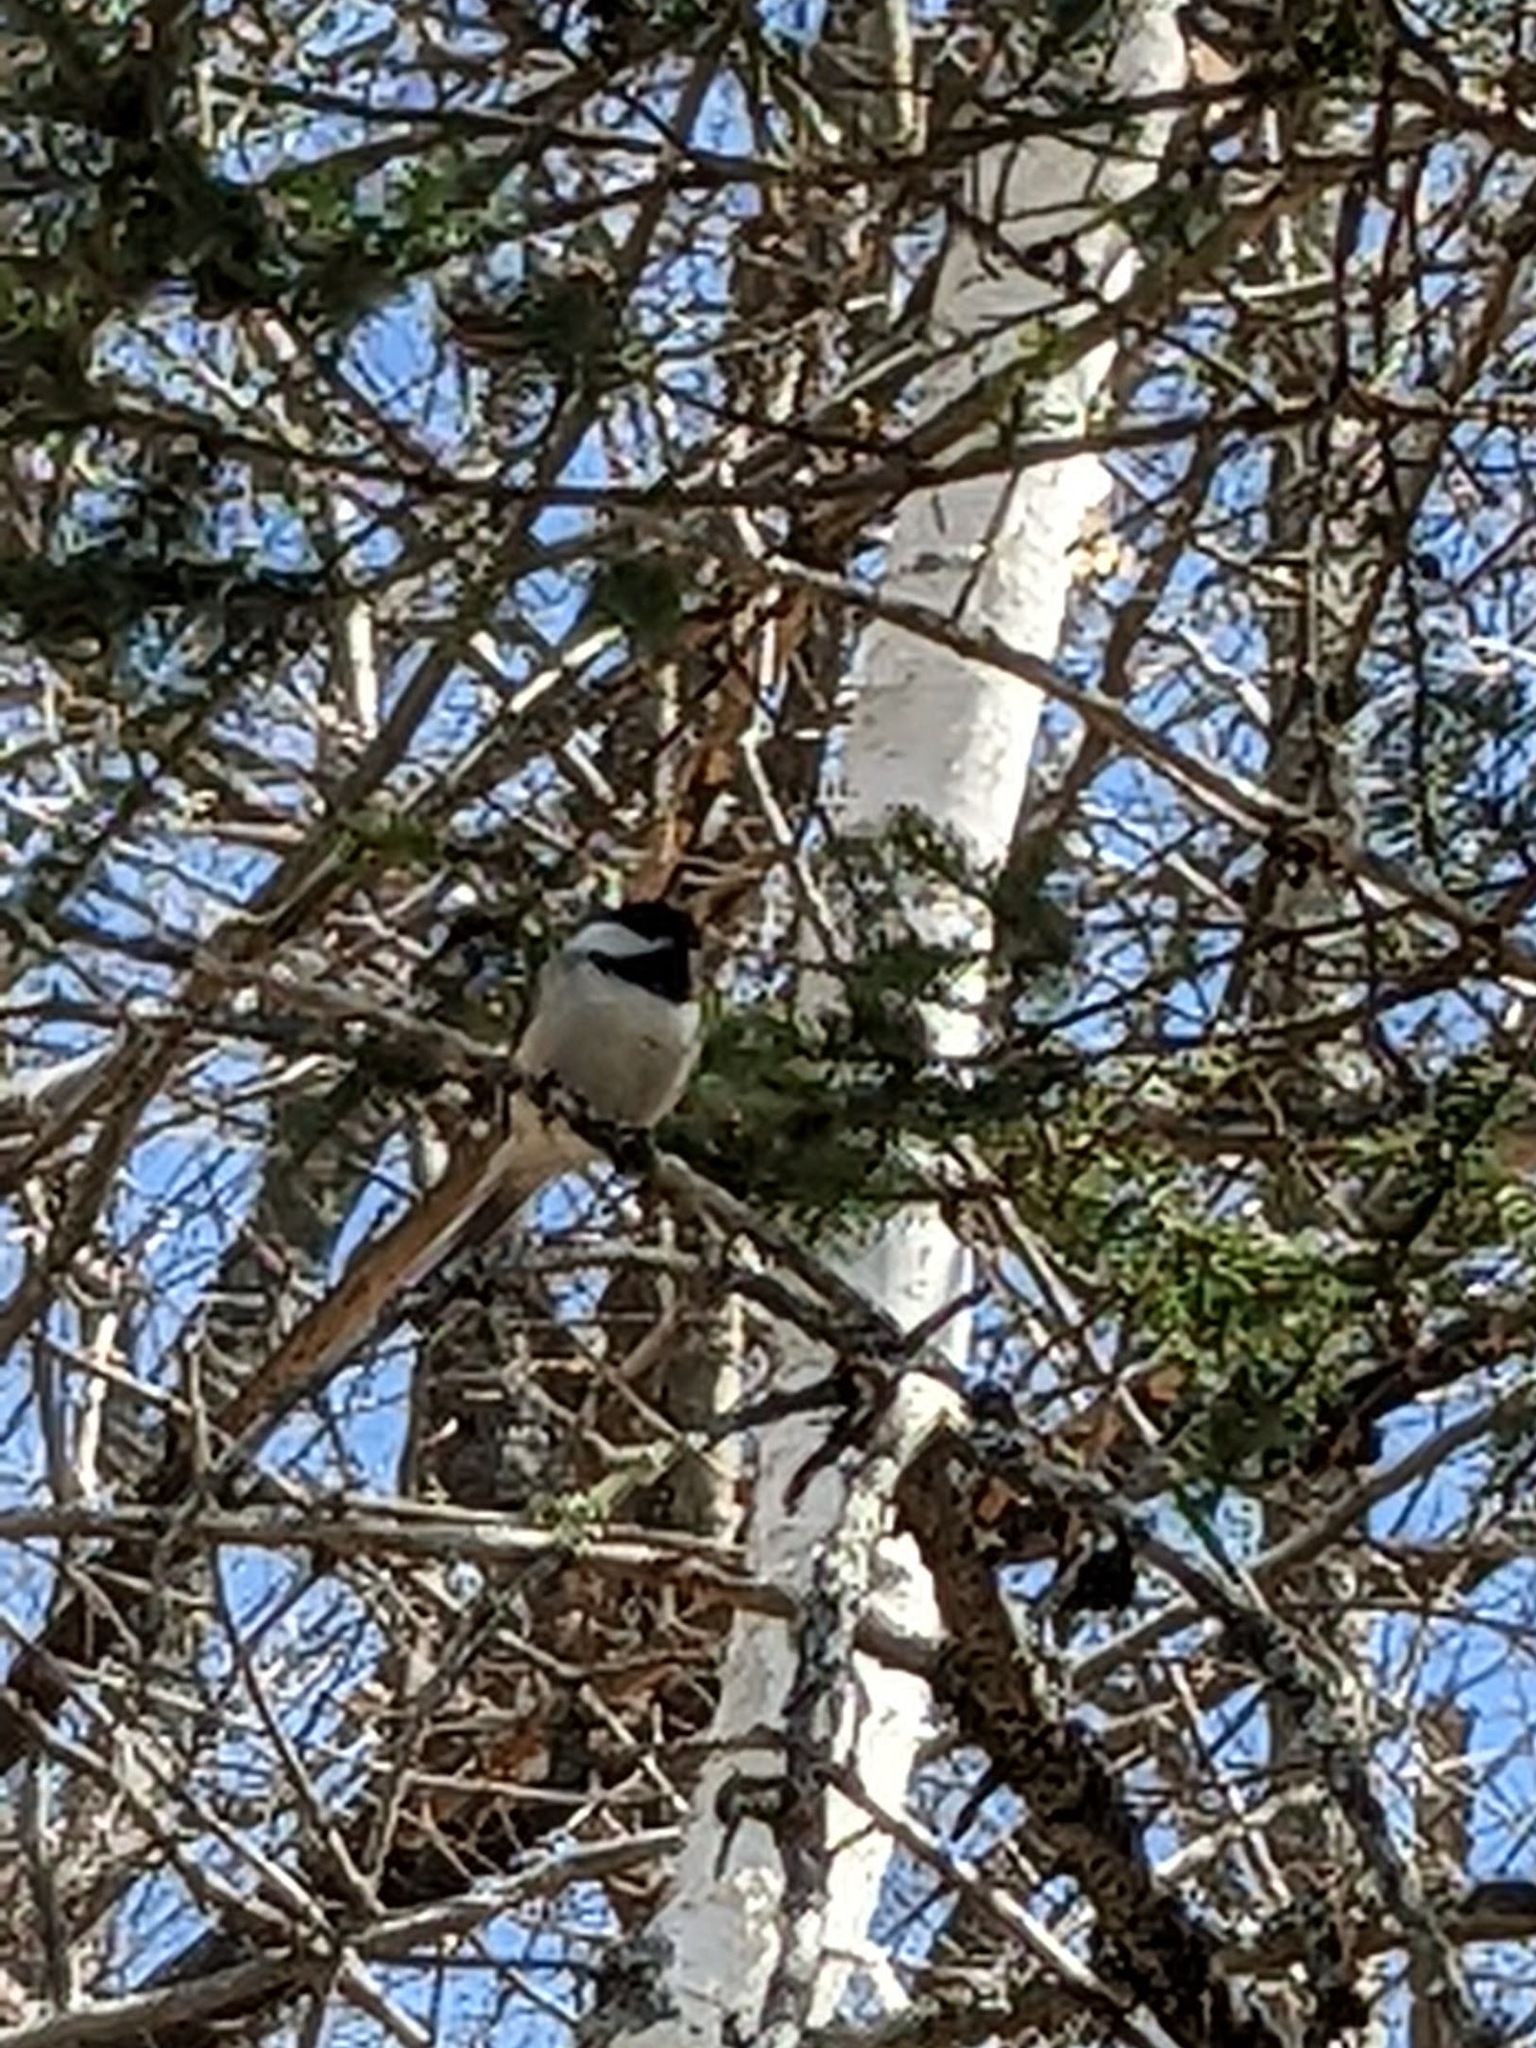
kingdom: Animalia
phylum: Chordata
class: Aves
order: Passeriformes
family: Paridae
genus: Poecile
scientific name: Poecile atricapillus
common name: Black-capped chickadee
